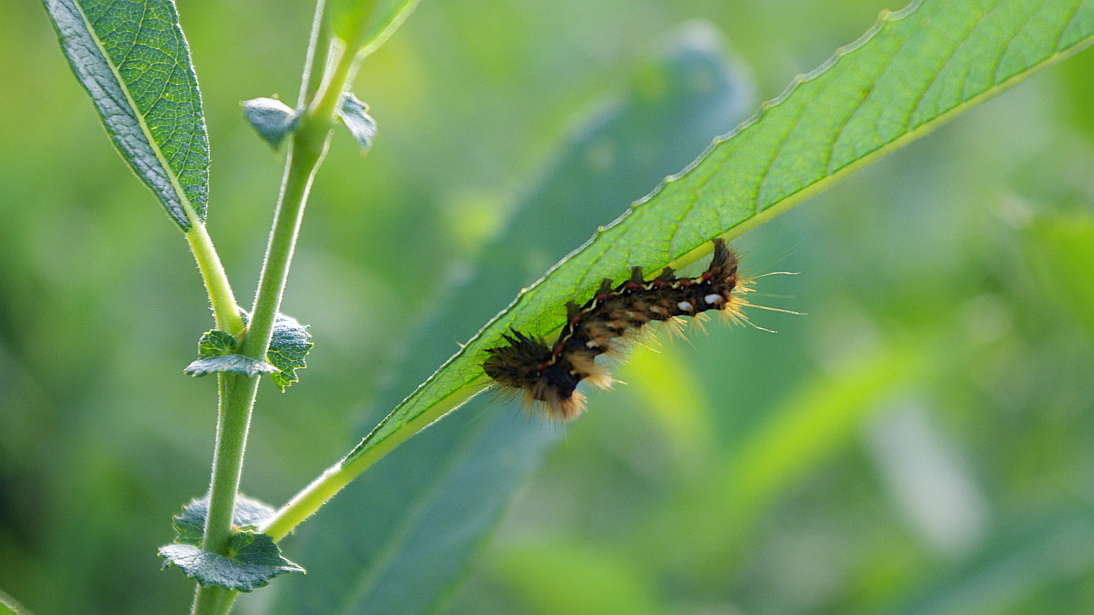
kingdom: Animalia
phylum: Arthropoda
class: Insecta
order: Lepidoptera
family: Noctuidae
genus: Acronicta
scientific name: Acronicta rumicis
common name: Knot grass
